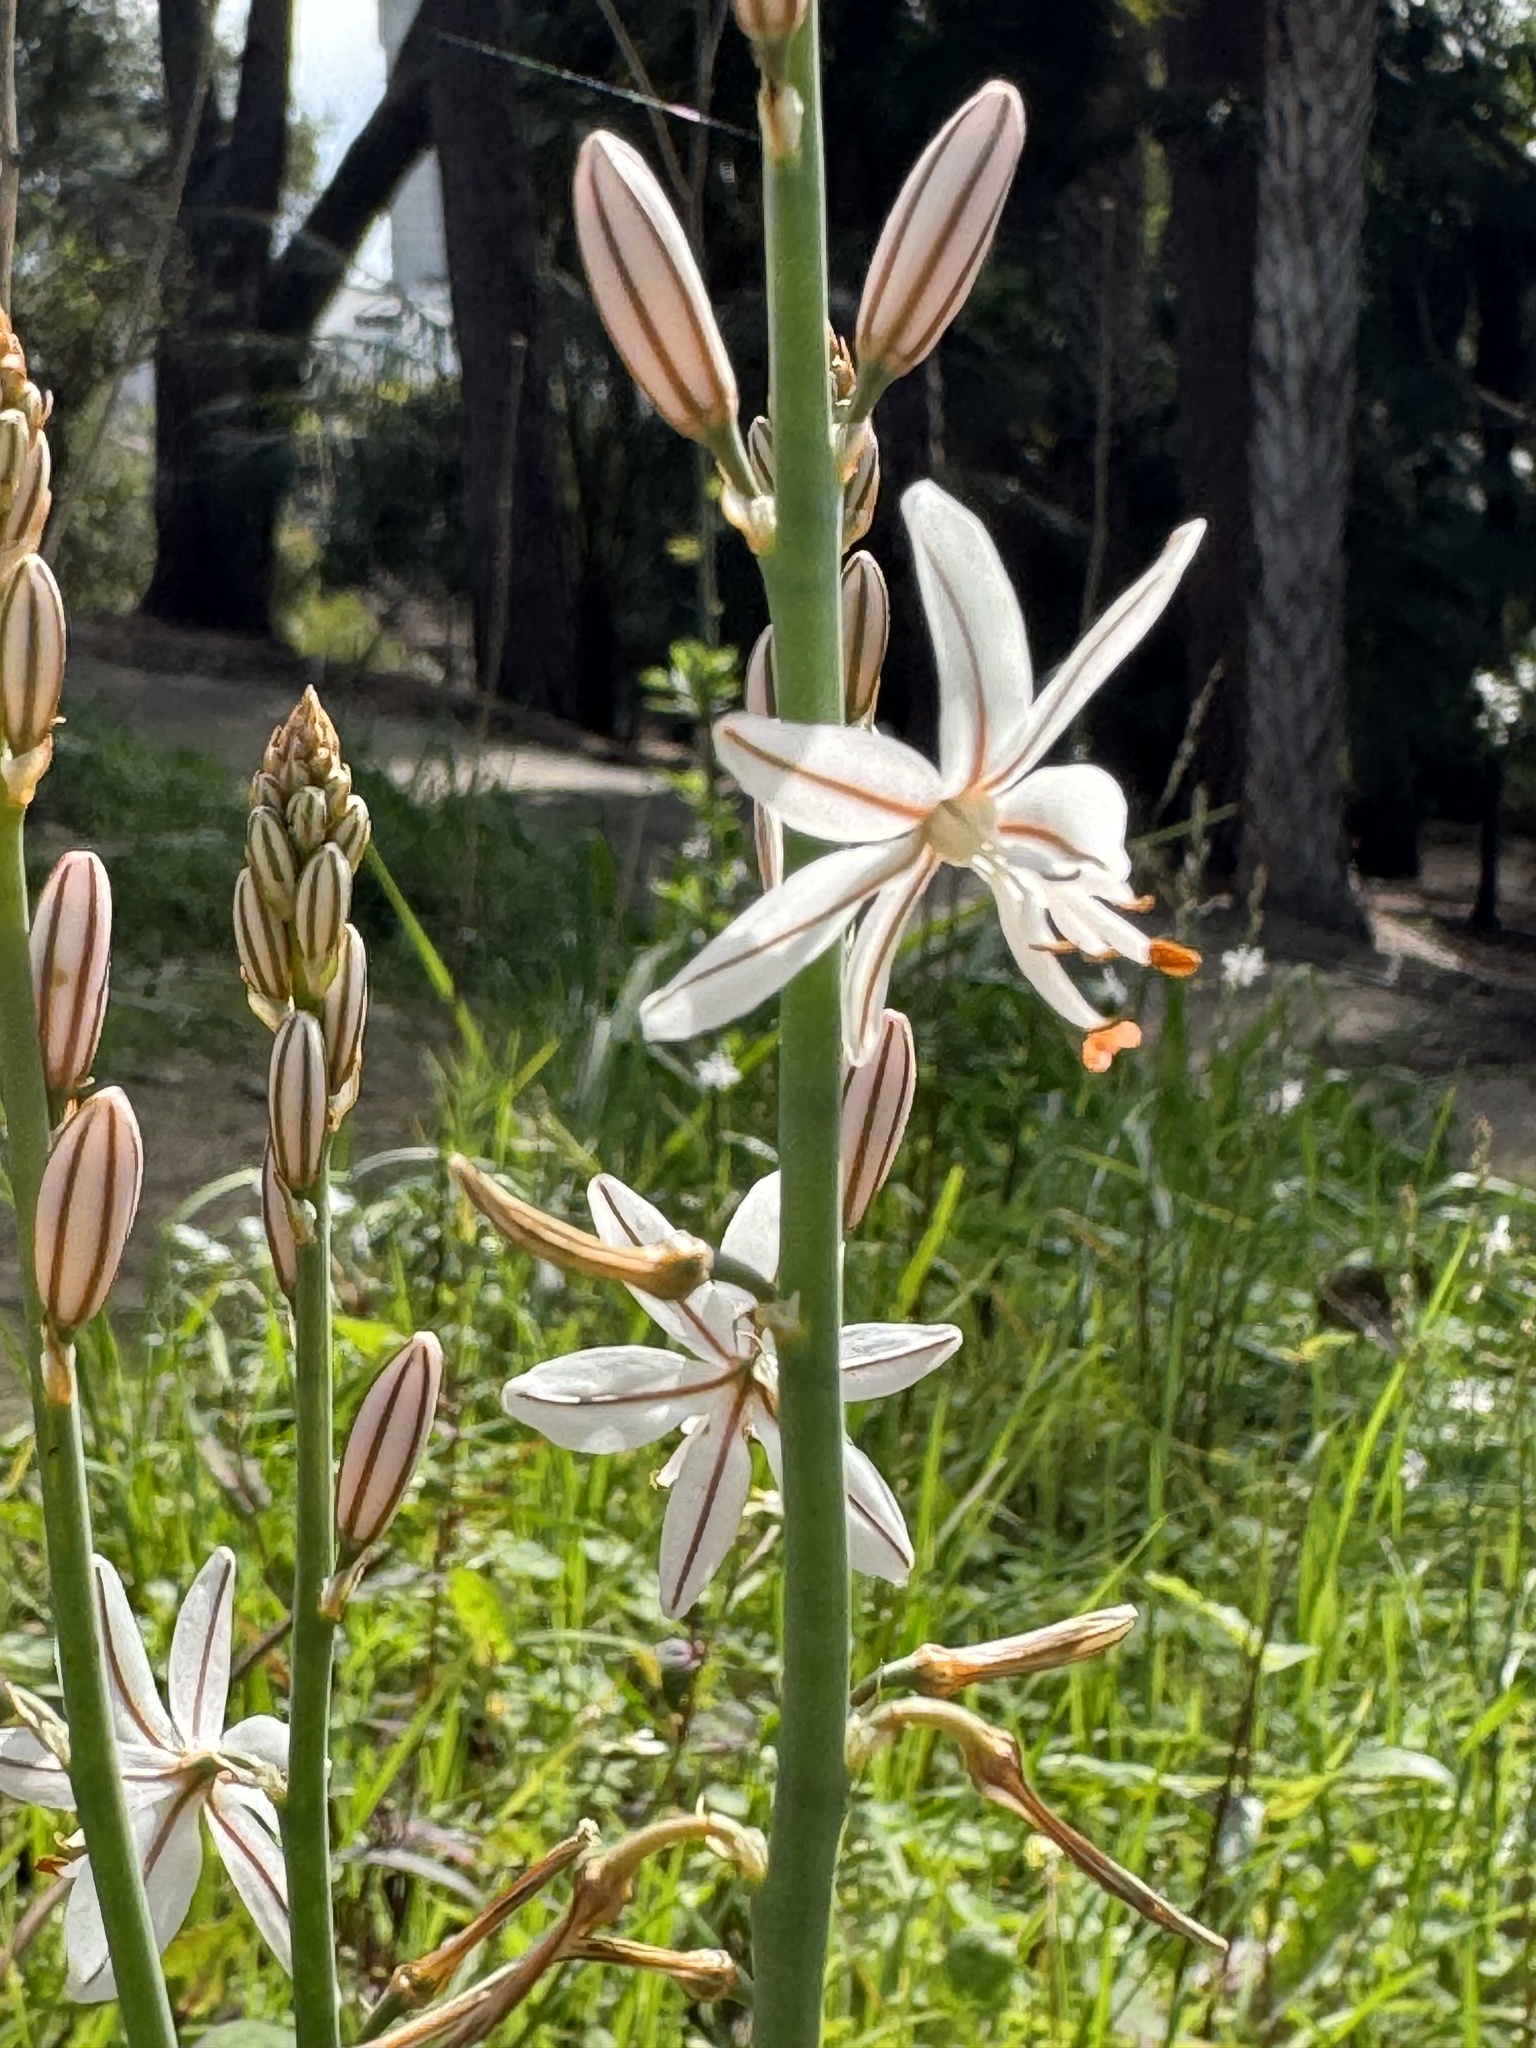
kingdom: Plantae
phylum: Tracheophyta
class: Liliopsida
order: Asparagales
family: Asphodelaceae
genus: Asphodelus
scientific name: Asphodelus fistulosus
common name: Onionweed
